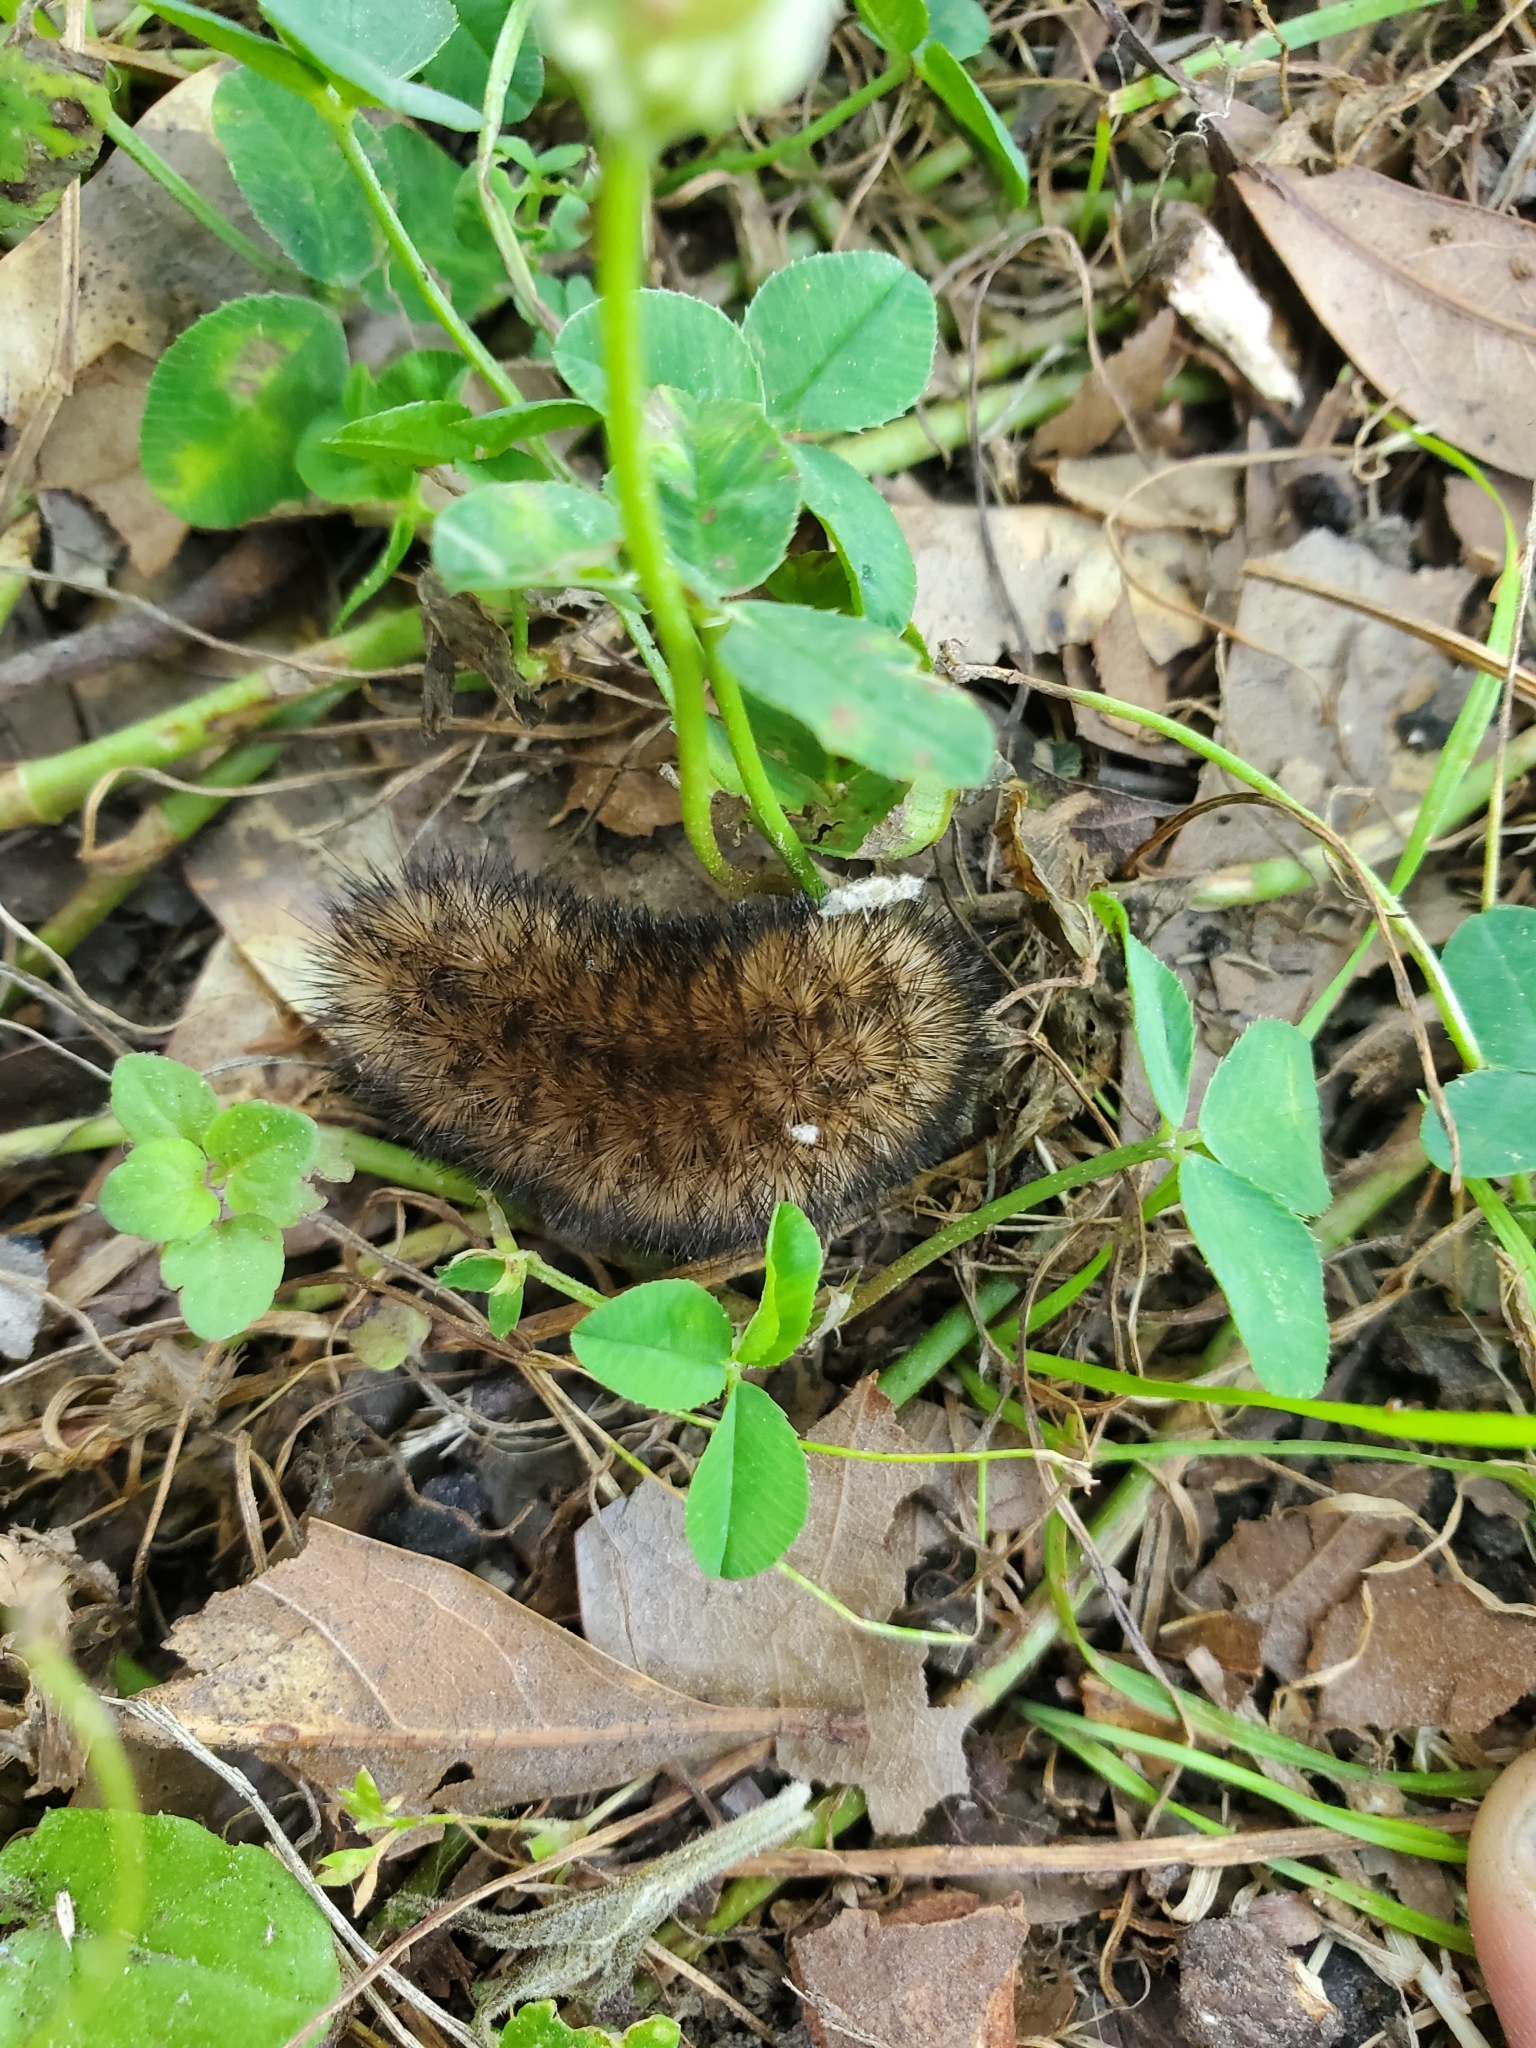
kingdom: Animalia
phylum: Arthropoda
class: Insecta
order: Lepidoptera
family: Erebidae
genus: Pyrrharctia
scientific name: Pyrrharctia isabella
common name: Isabella tiger moth
